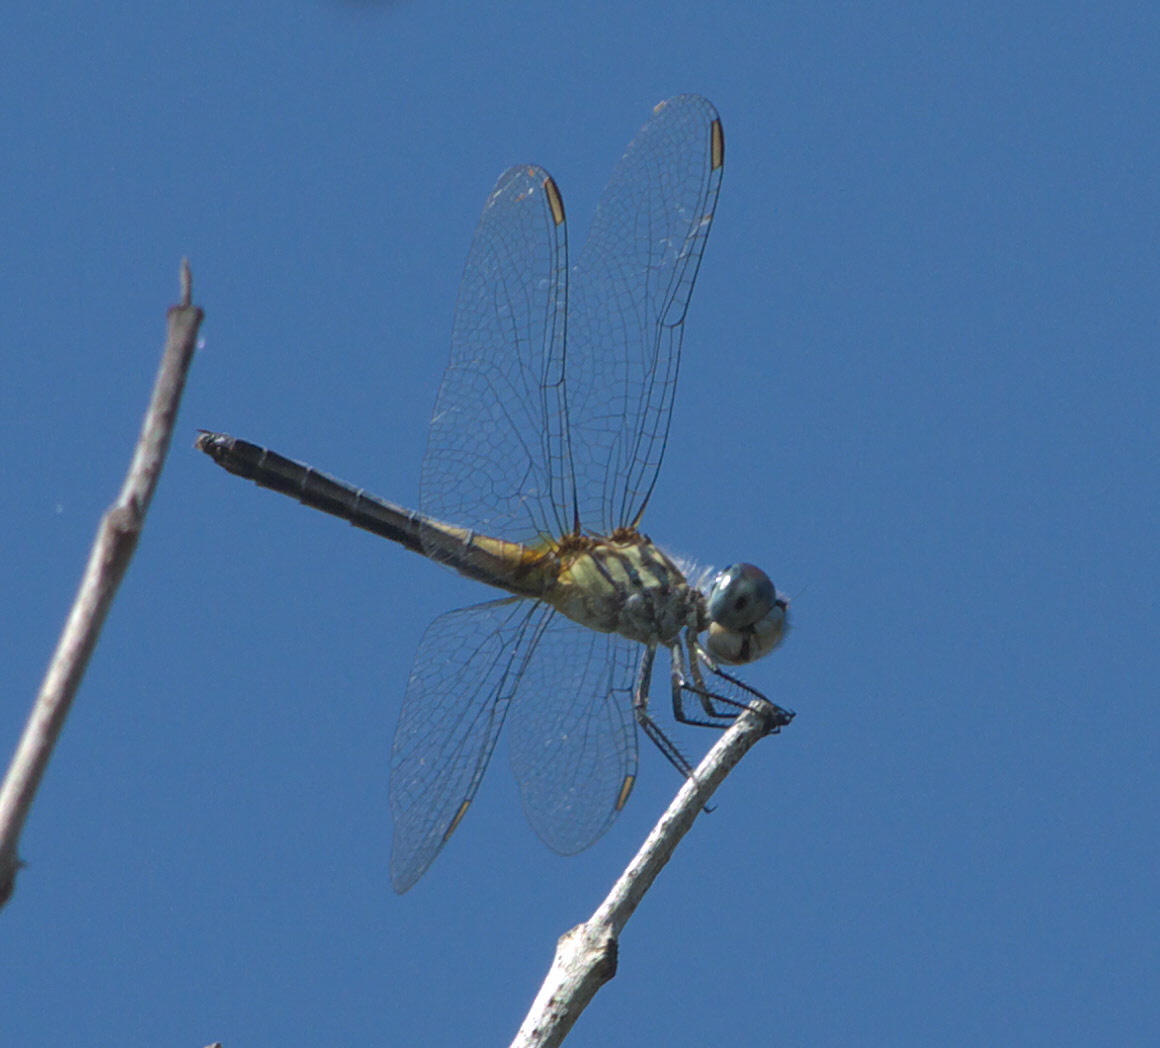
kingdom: Animalia
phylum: Arthropoda
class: Insecta
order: Odonata
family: Libellulidae
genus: Pachydiplax
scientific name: Pachydiplax longipennis
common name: Blue dasher
